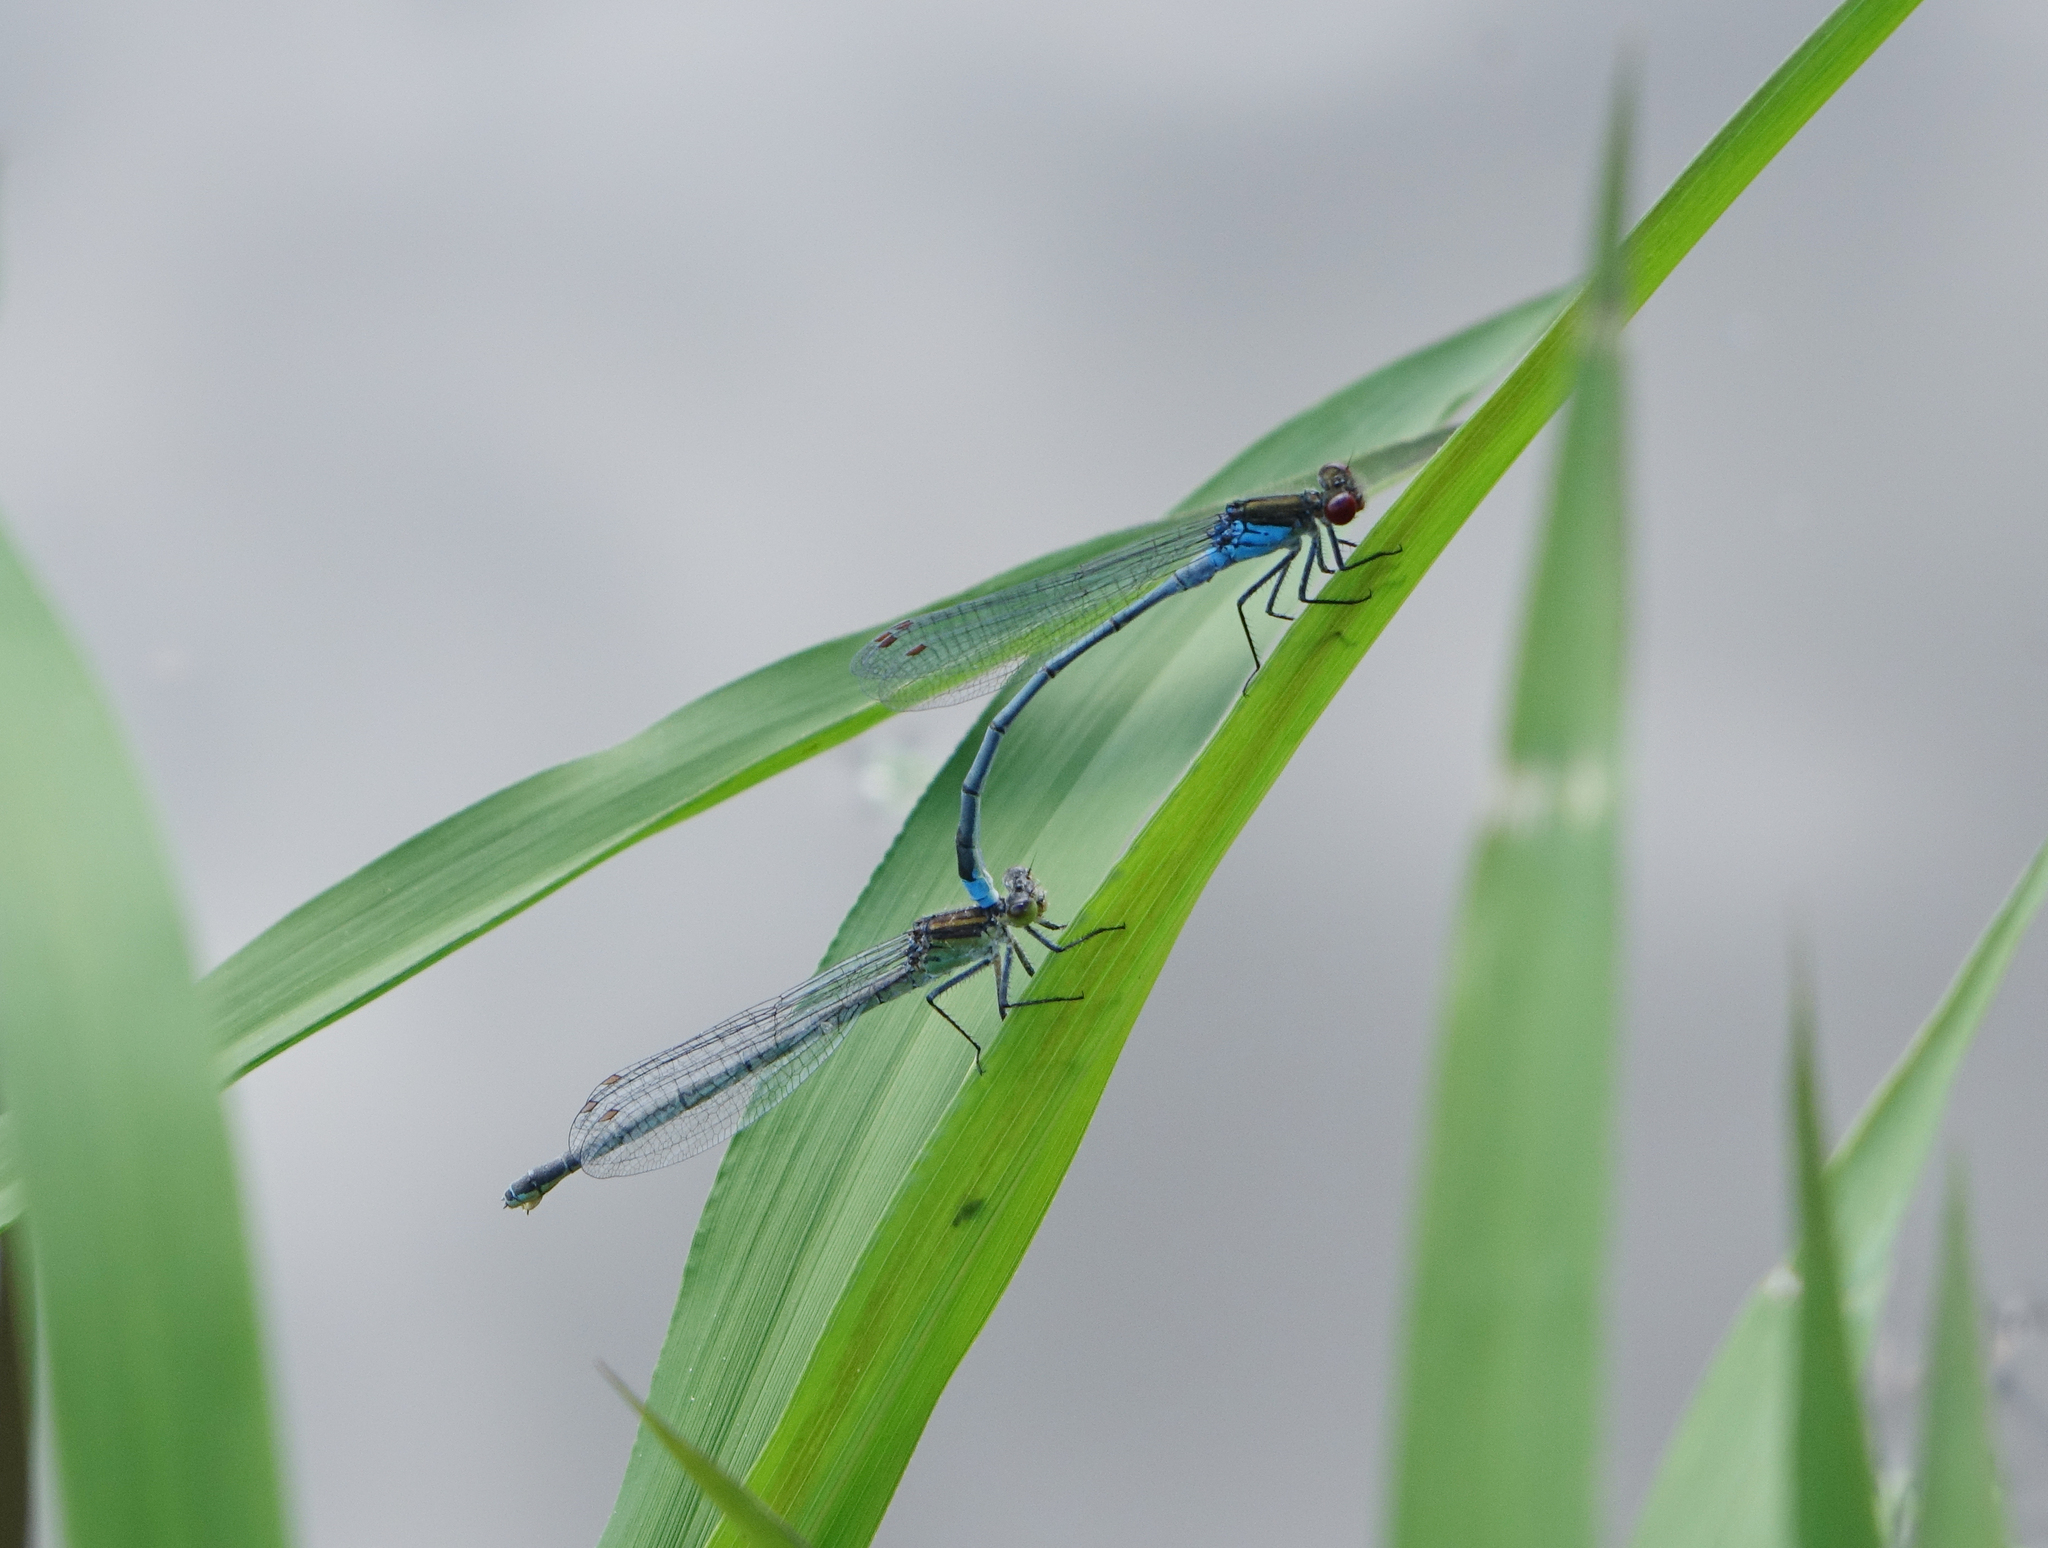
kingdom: Animalia
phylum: Arthropoda
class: Insecta
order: Odonata
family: Coenagrionidae
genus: Erythromma
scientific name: Erythromma najas
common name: Red-eyed damselfly
